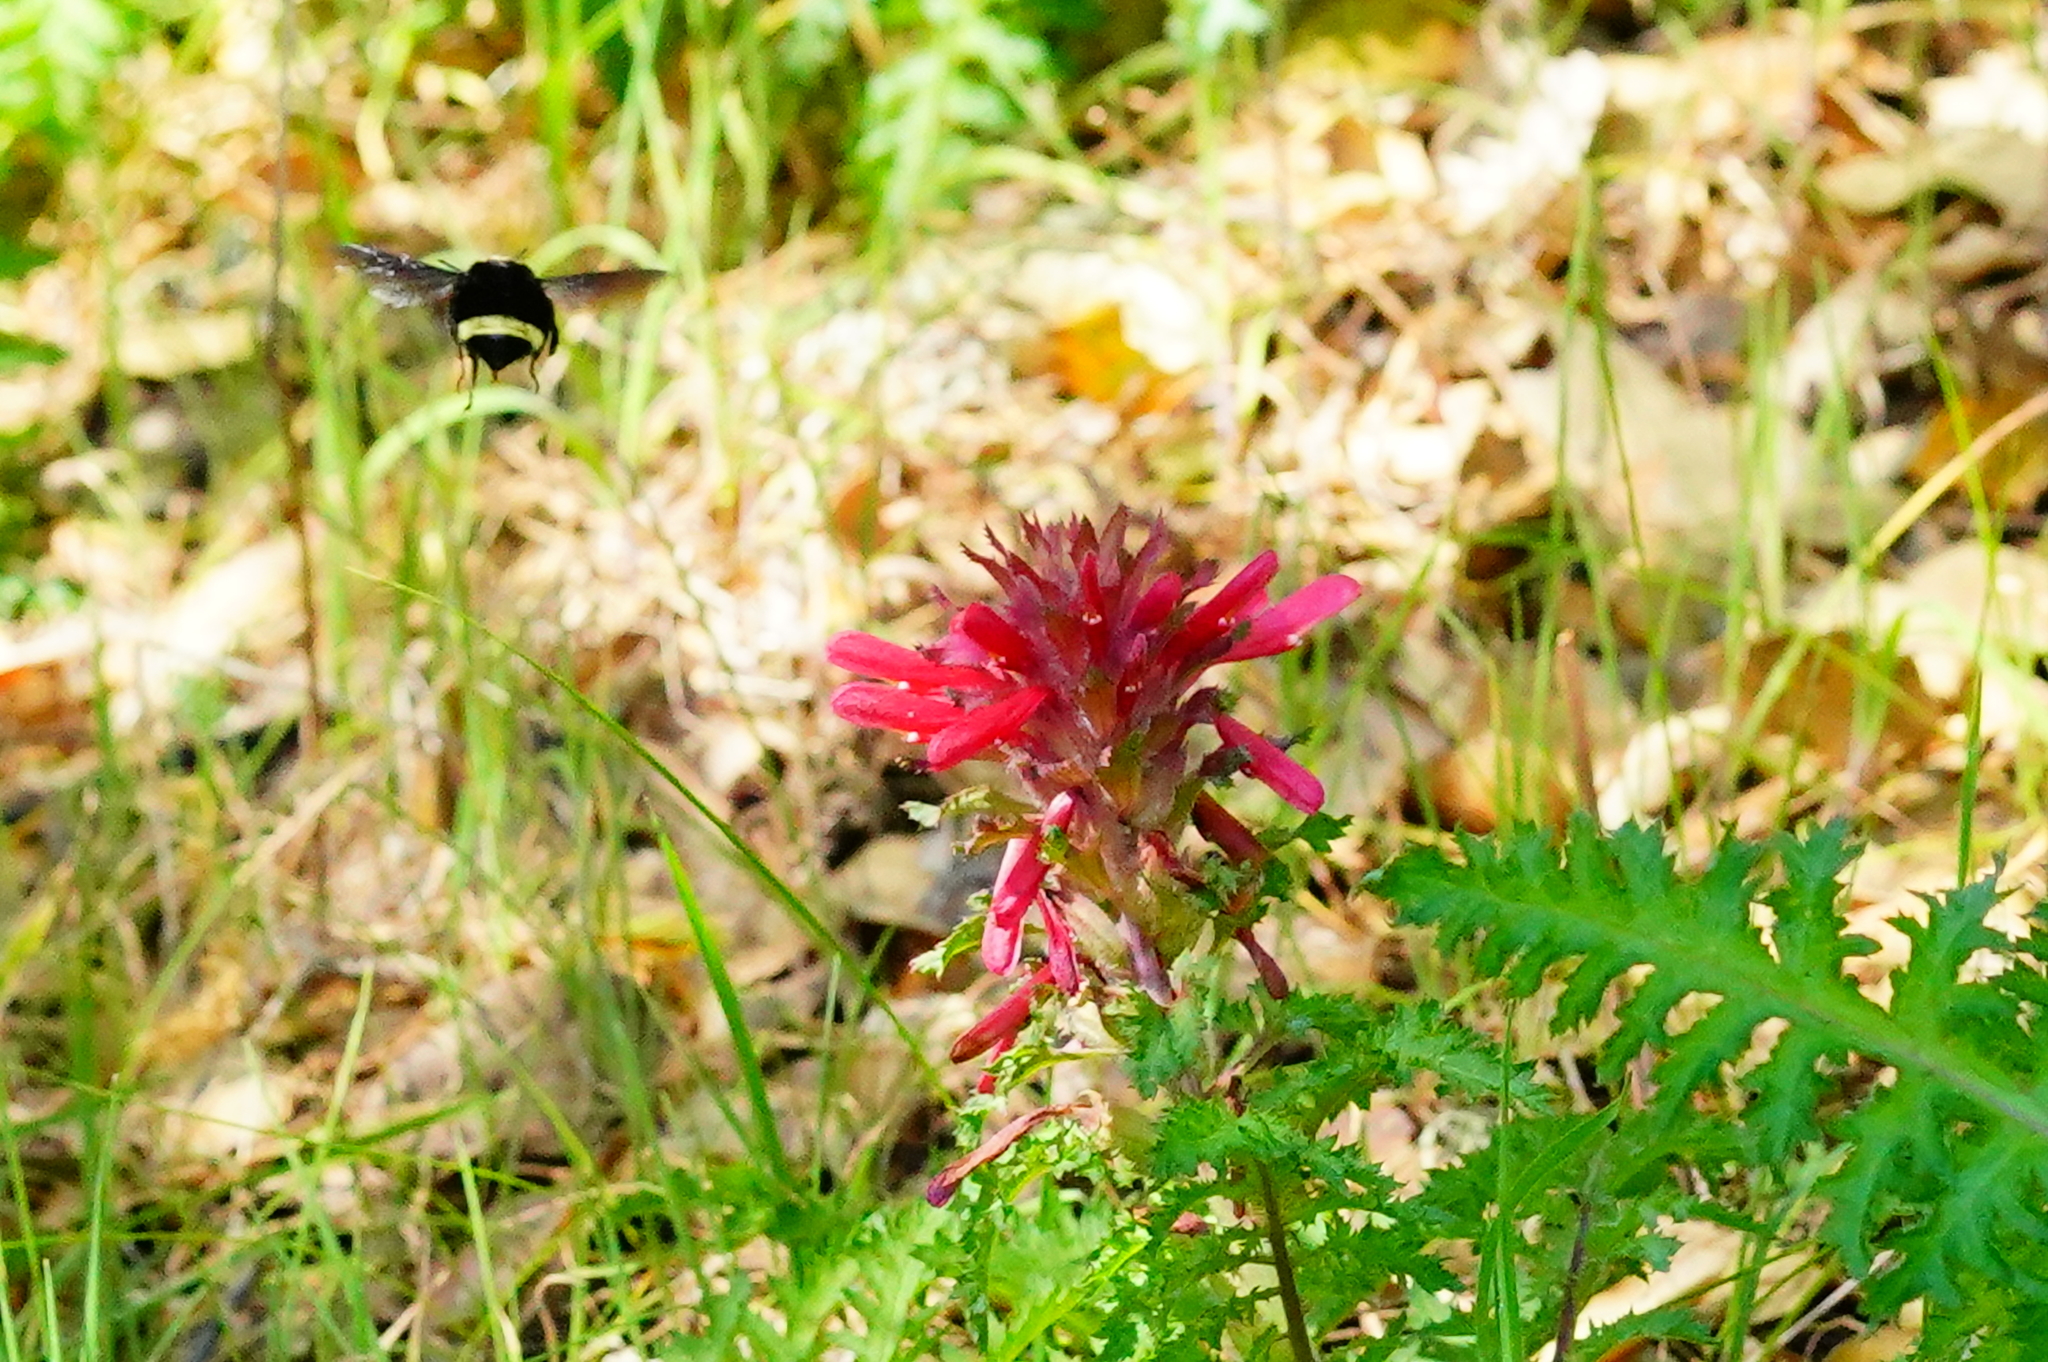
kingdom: Animalia
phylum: Arthropoda
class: Insecta
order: Hymenoptera
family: Apidae
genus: Bombus
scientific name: Bombus vosnesenskii
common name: Vosnesensky bumble bee
